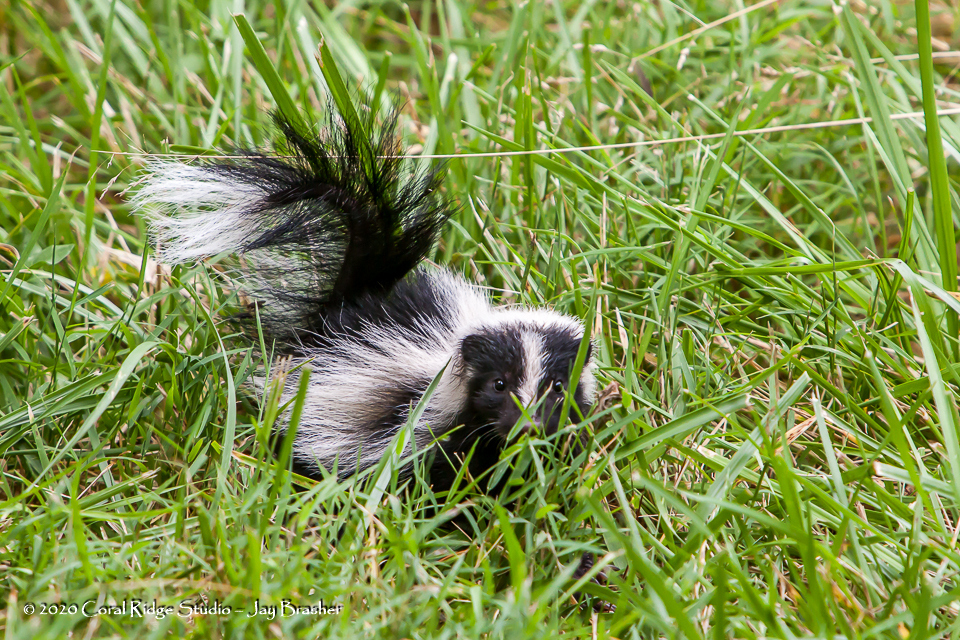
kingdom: Animalia
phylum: Chordata
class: Mammalia
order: Carnivora
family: Mephitidae
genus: Mephitis
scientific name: Mephitis mephitis
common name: Striped skunk
